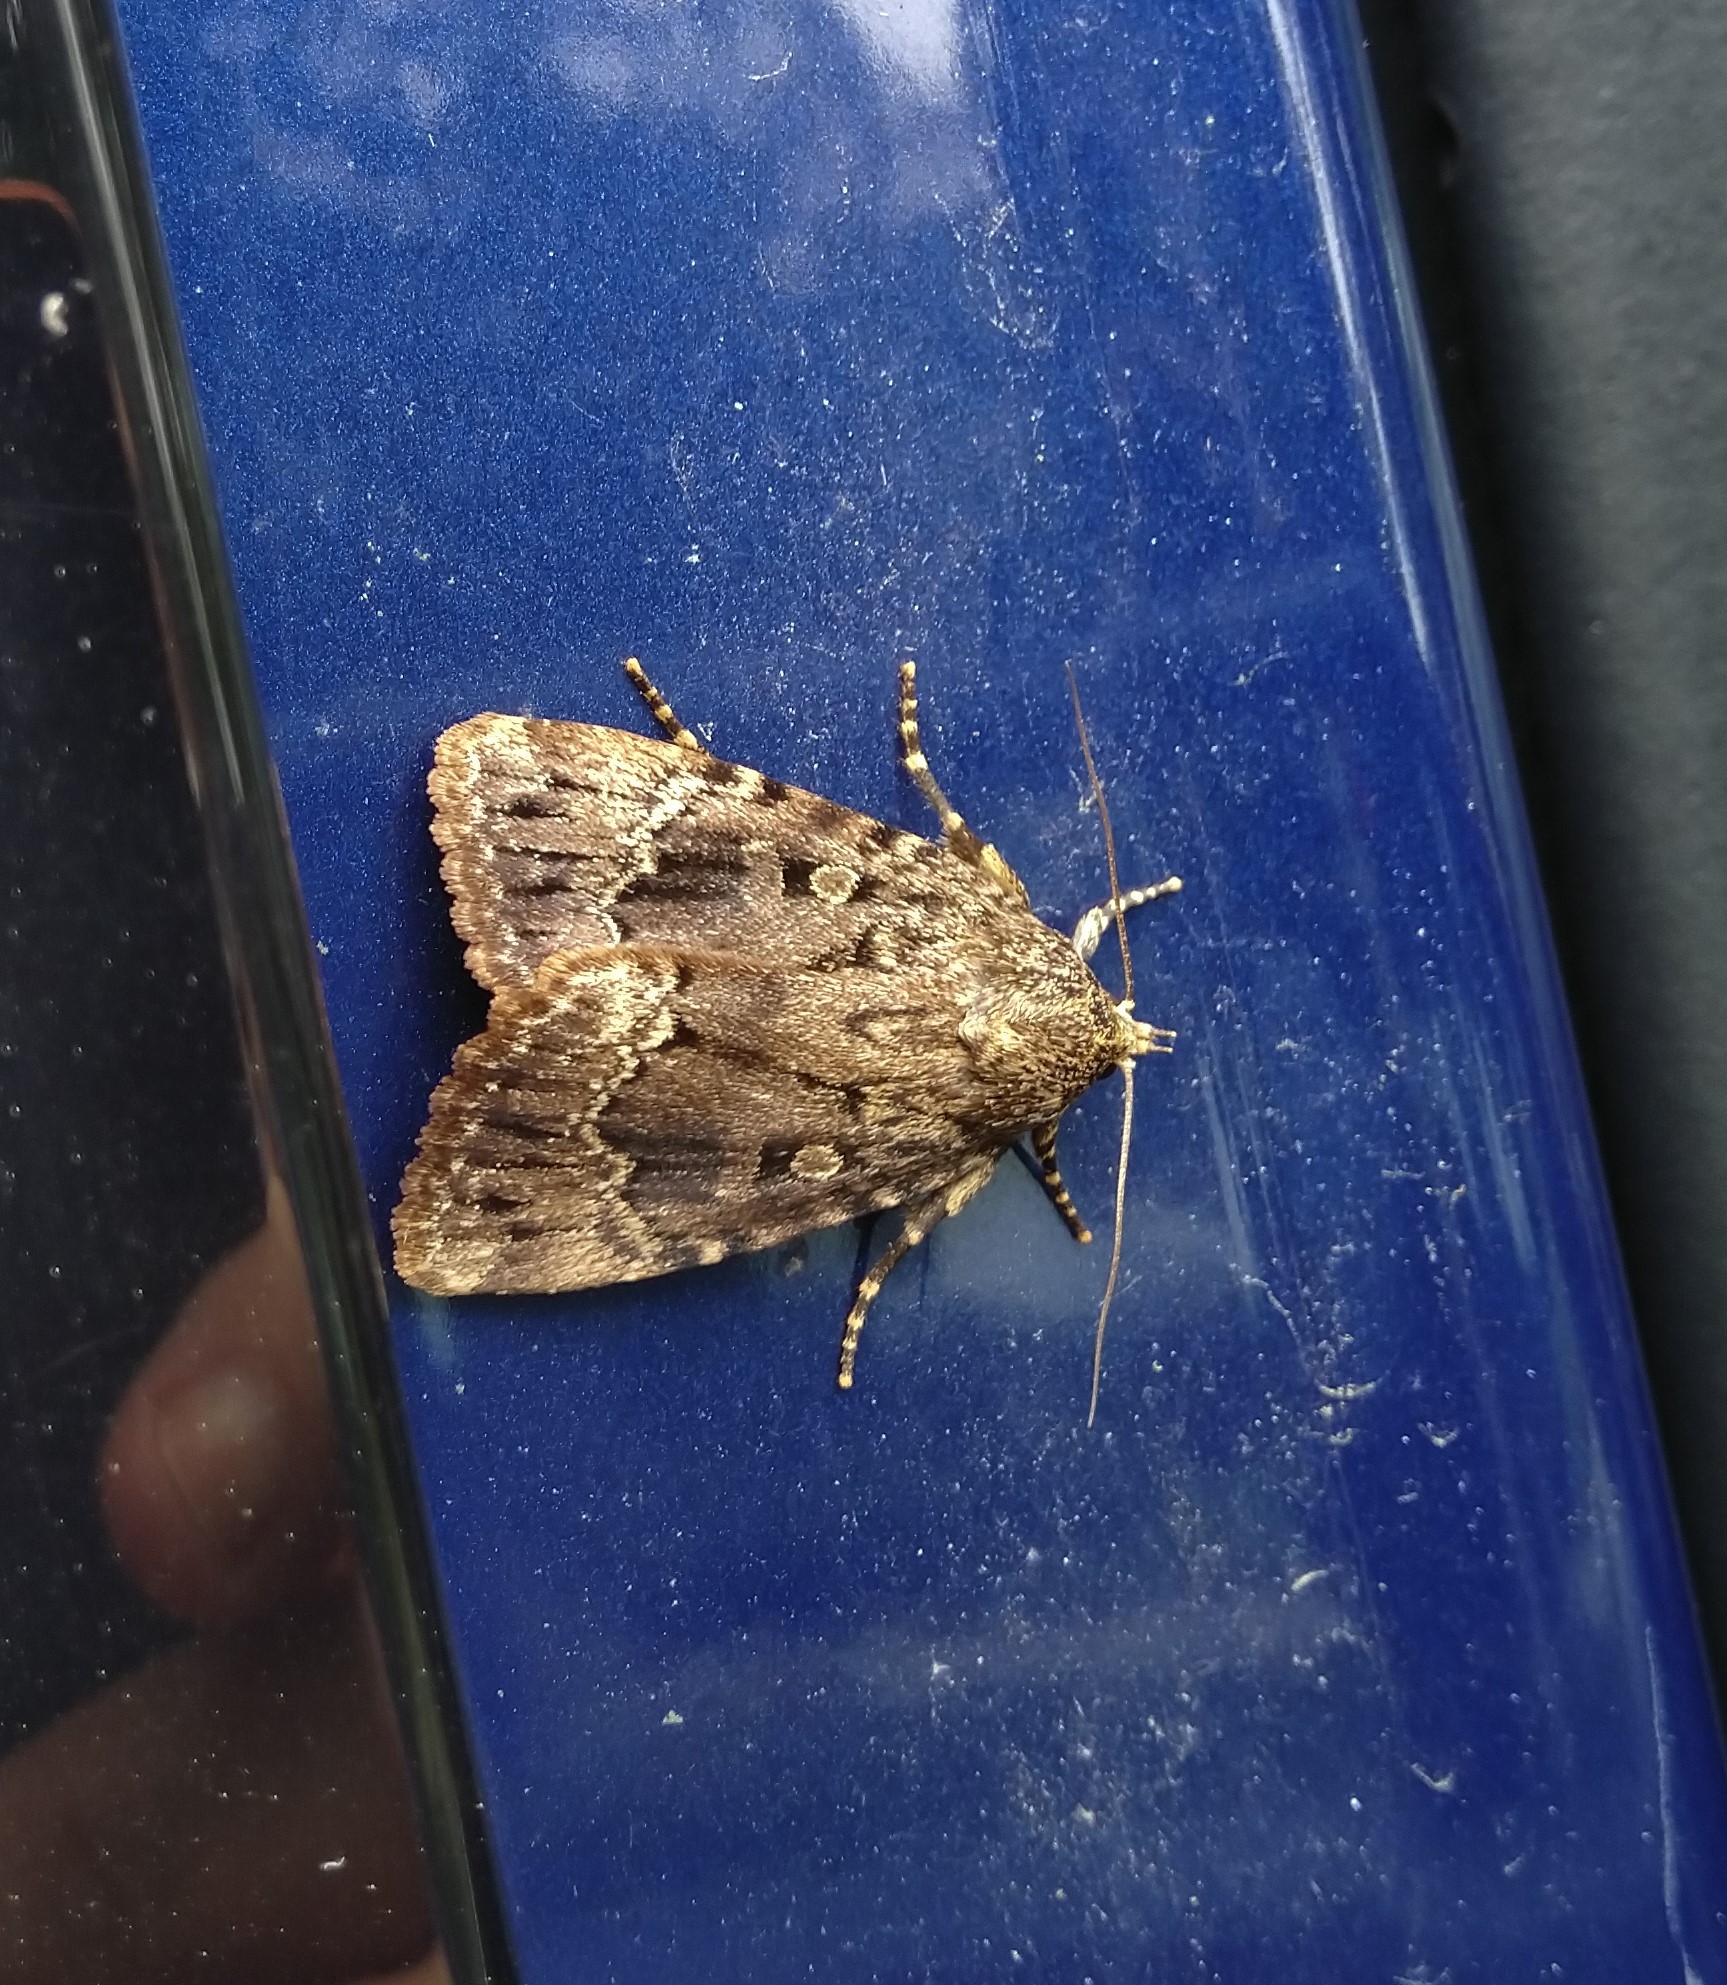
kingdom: Animalia
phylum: Arthropoda
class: Insecta
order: Lepidoptera
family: Noctuidae
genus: Amphipyra
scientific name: Amphipyra pyramidoides
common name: American copper underwing
